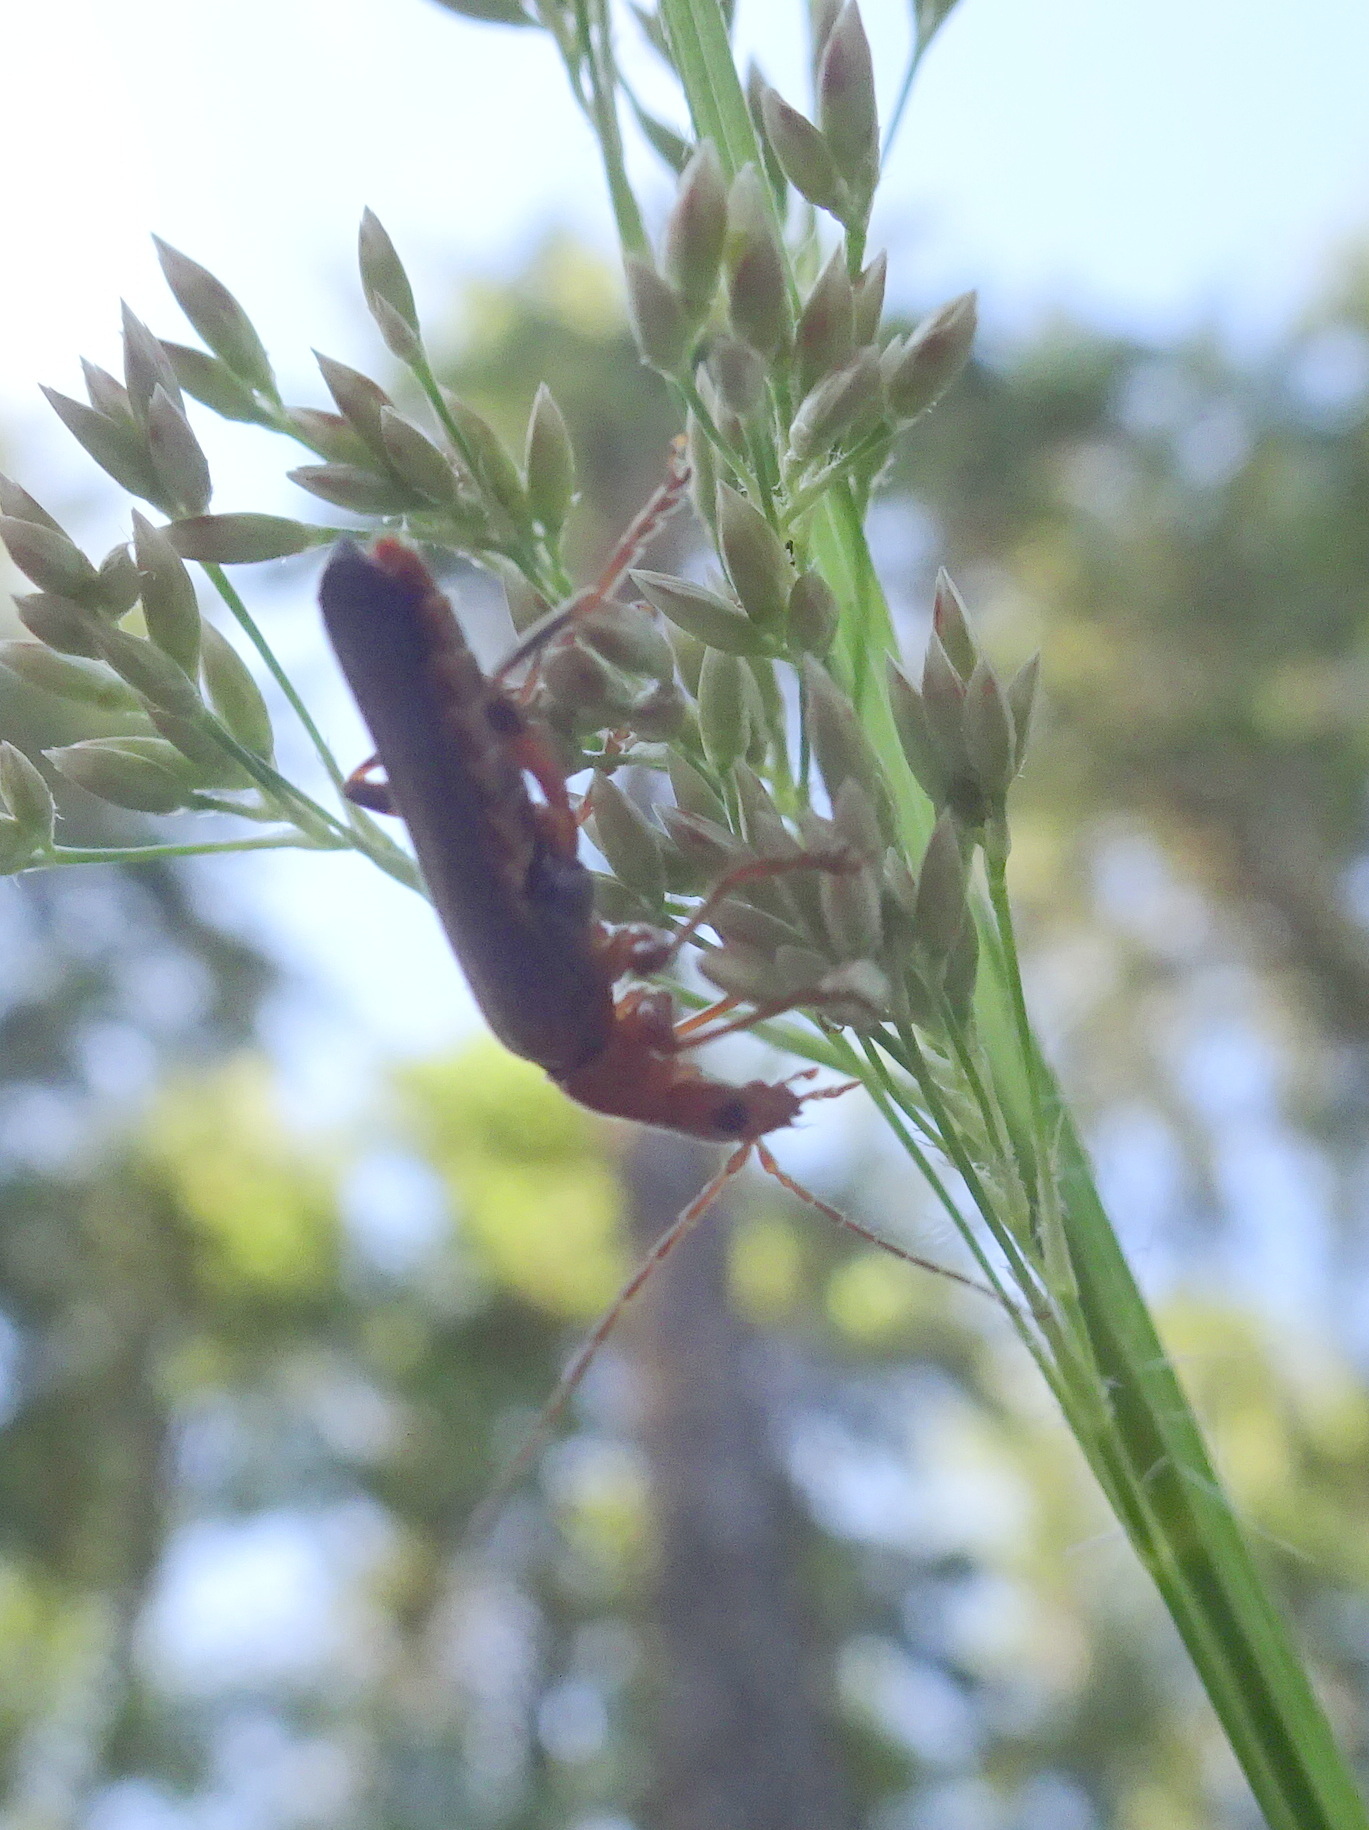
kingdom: Animalia
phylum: Arthropoda
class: Insecta
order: Coleoptera
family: Cantharidae
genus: Cantharis
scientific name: Cantharis livida
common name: Livid soldier beetle
